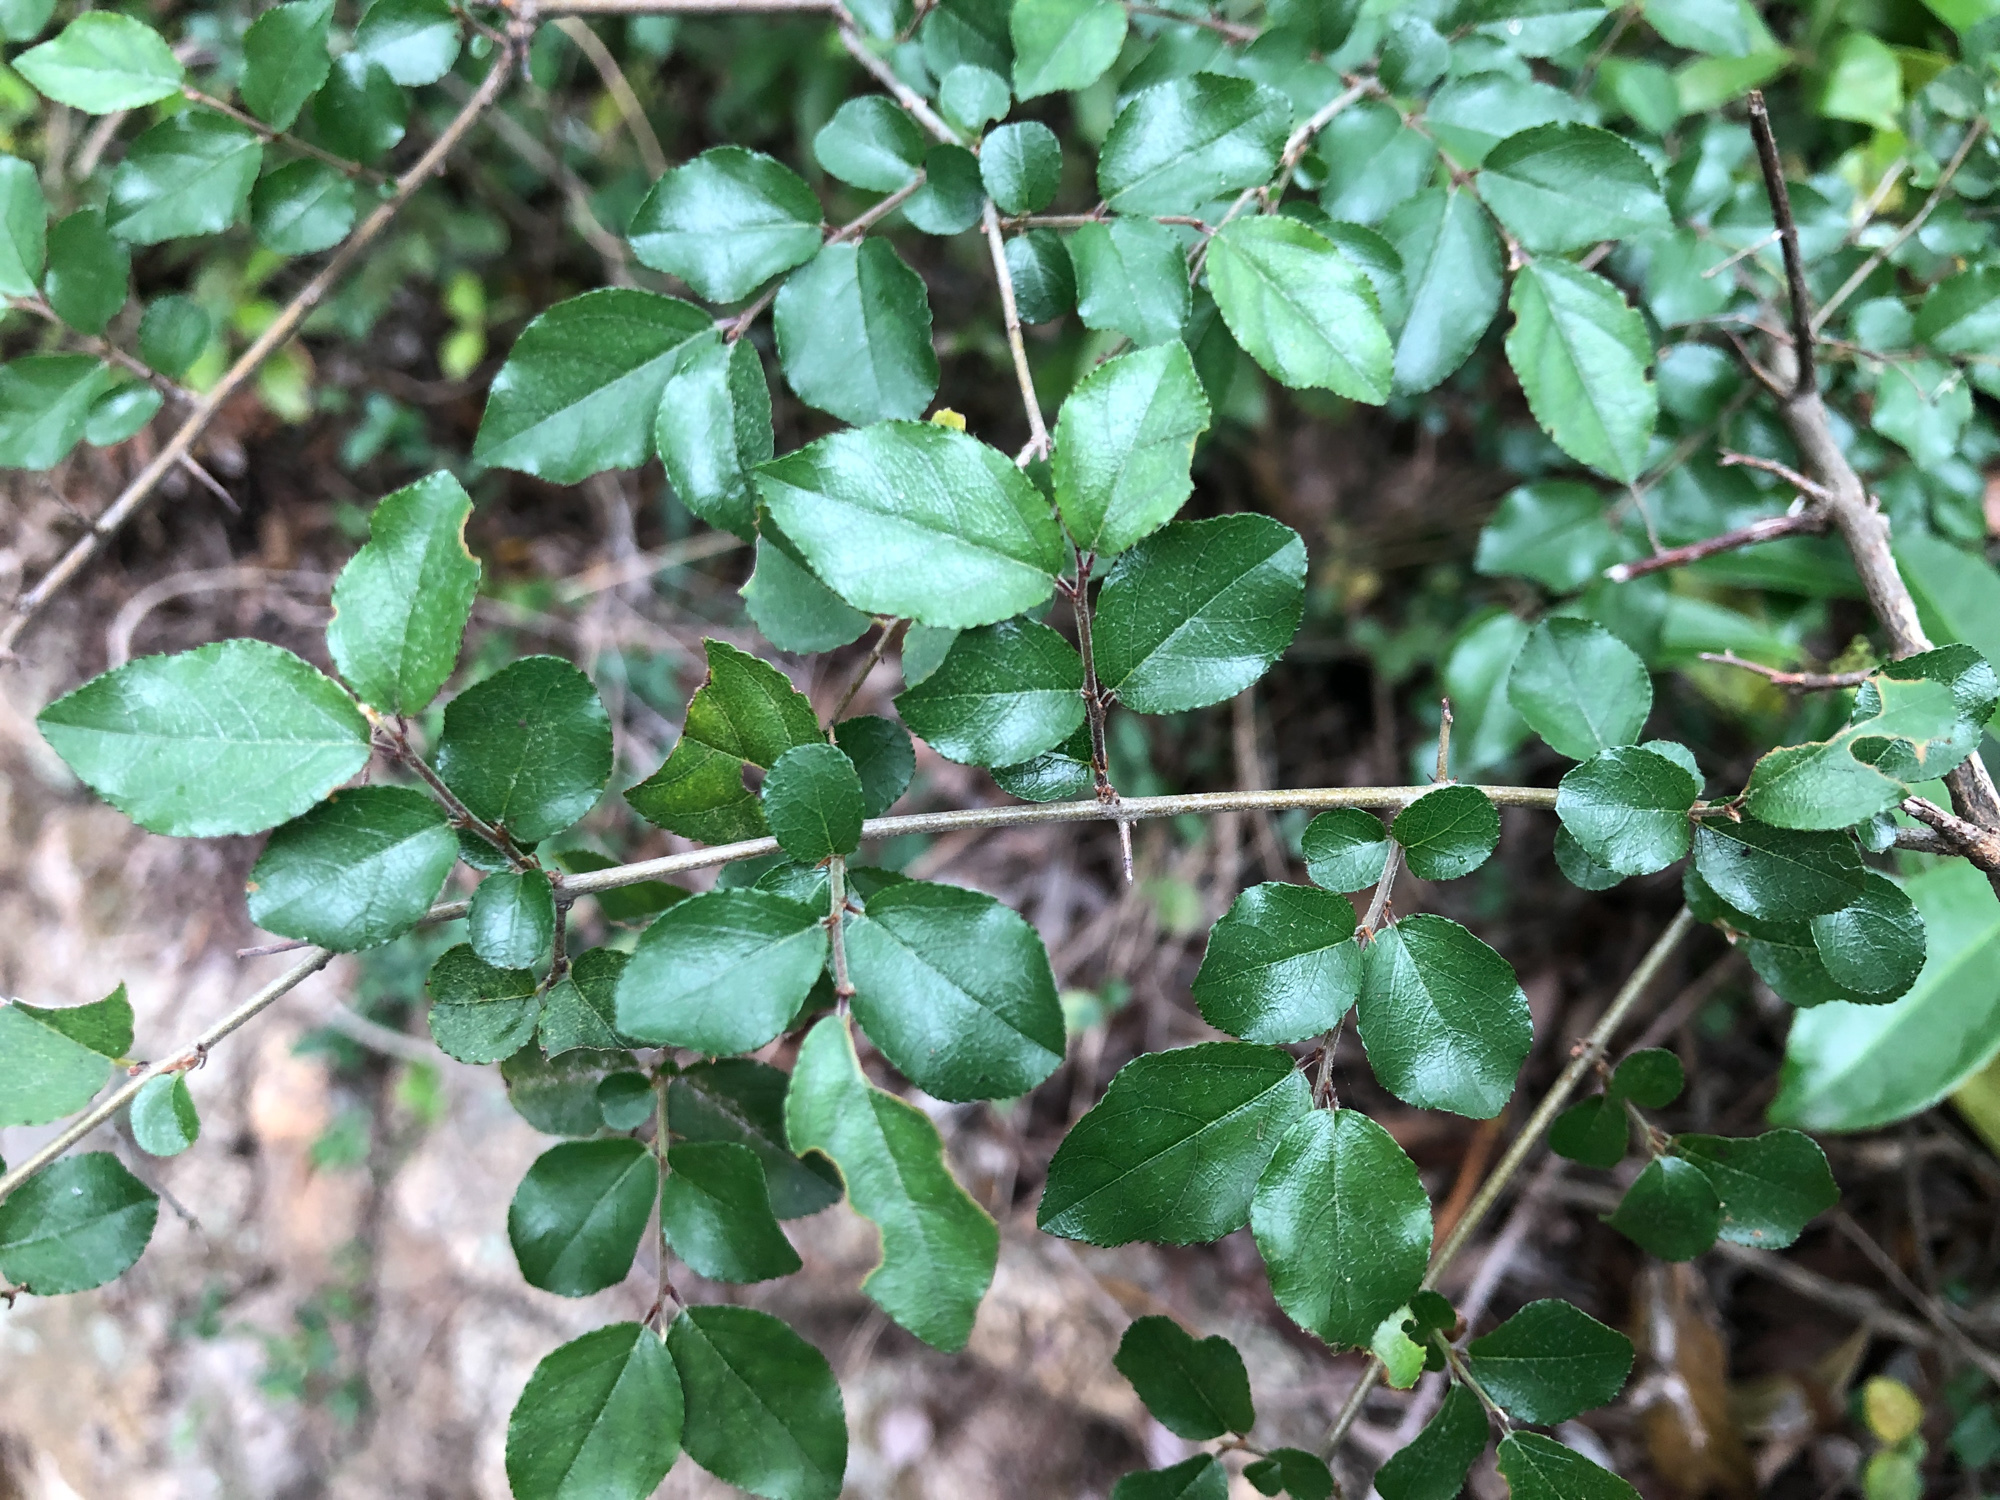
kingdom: Plantae
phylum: Tracheophyta
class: Magnoliopsida
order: Rosales
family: Rhamnaceae
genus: Sageretia
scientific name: Sageretia thea
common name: Pauper's-tea
